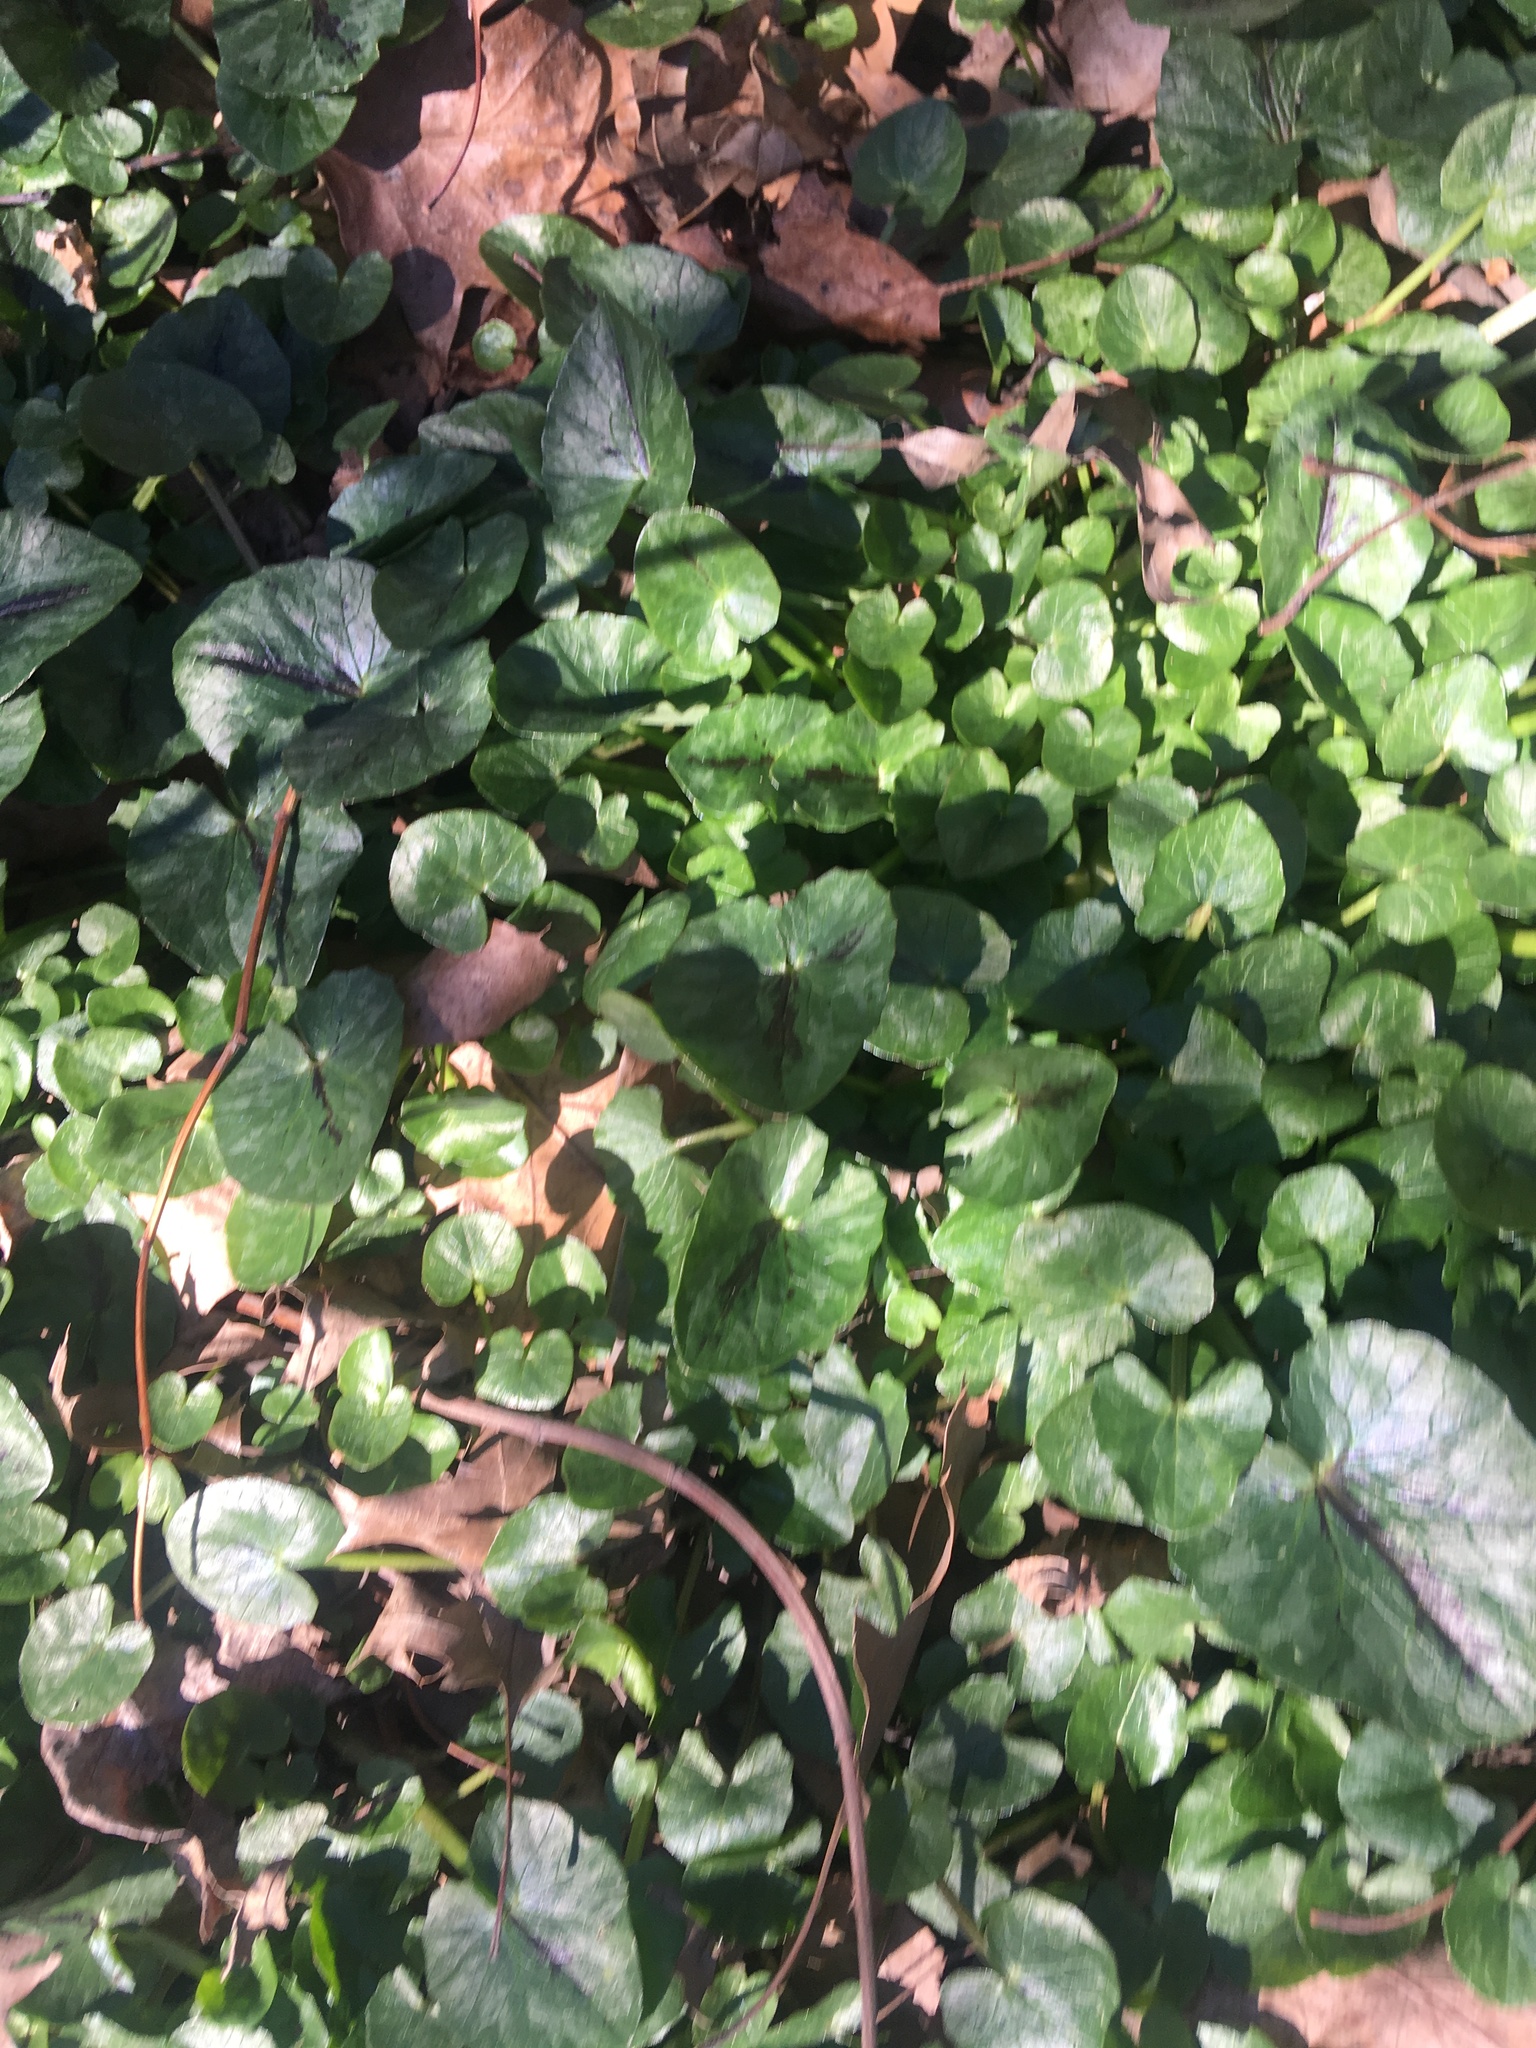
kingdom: Plantae
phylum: Tracheophyta
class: Magnoliopsida
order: Ranunculales
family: Ranunculaceae
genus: Ficaria
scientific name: Ficaria verna
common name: Lesser celandine
